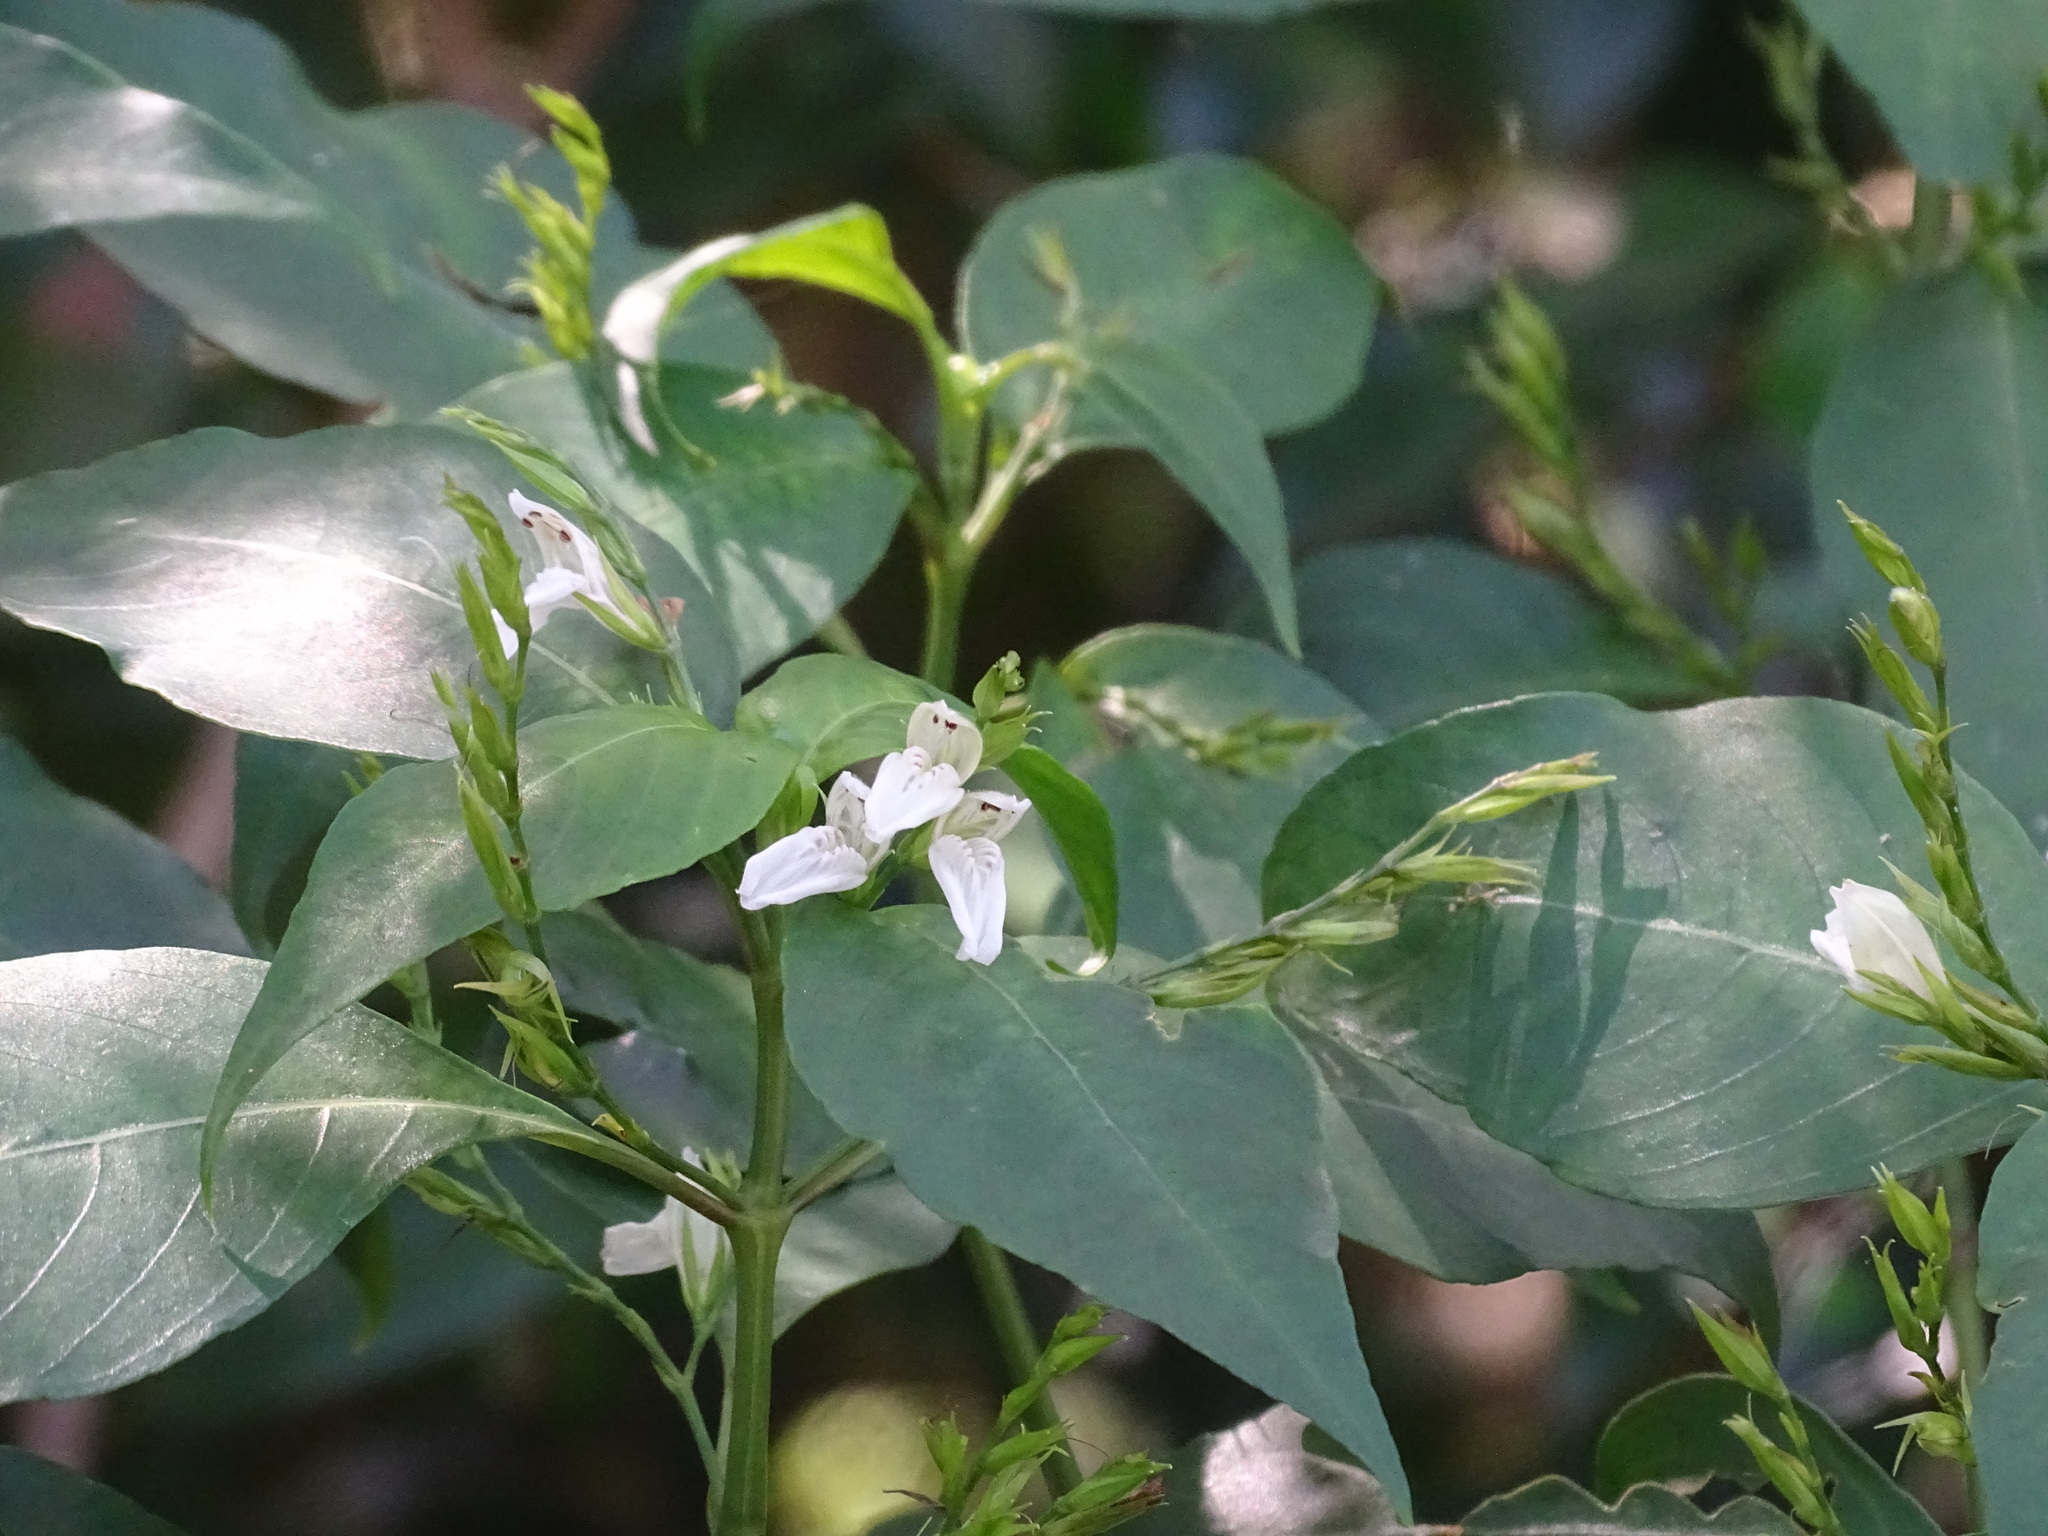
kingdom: Plantae
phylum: Tracheophyta
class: Magnoliopsida
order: Lamiales
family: Acanthaceae
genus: Justicia
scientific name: Justicia campechiana
